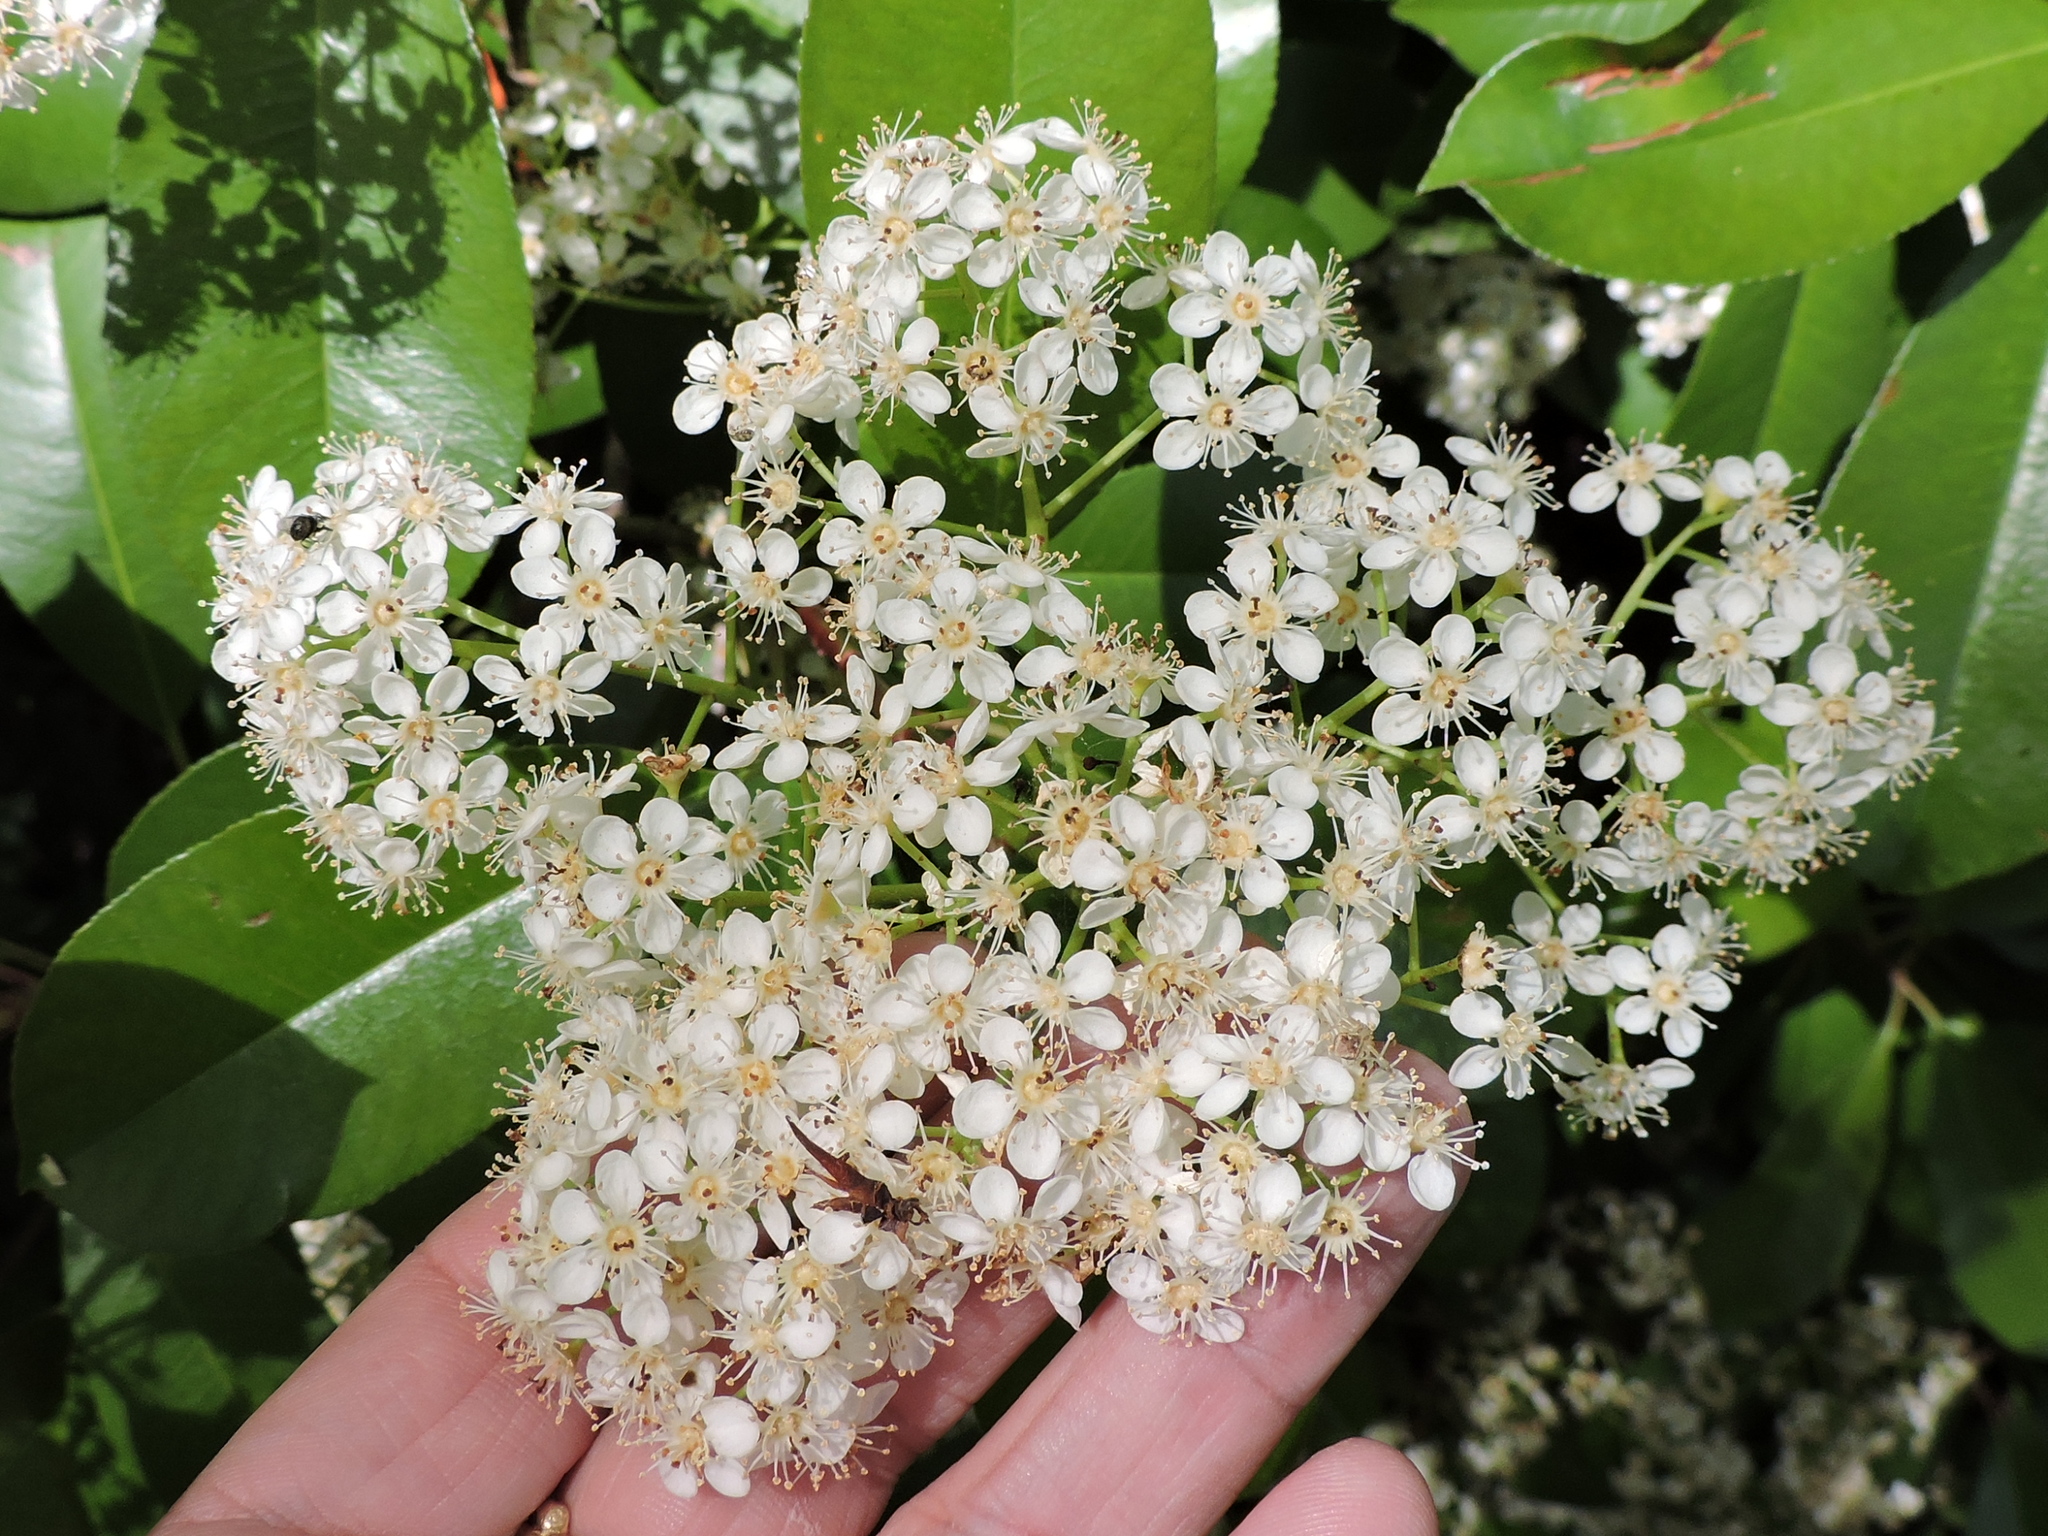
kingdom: Plantae
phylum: Tracheophyta
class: Magnoliopsida
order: Rosales
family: Rosaceae
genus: Photinia
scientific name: Photinia fraseri
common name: Fraser's photinia
